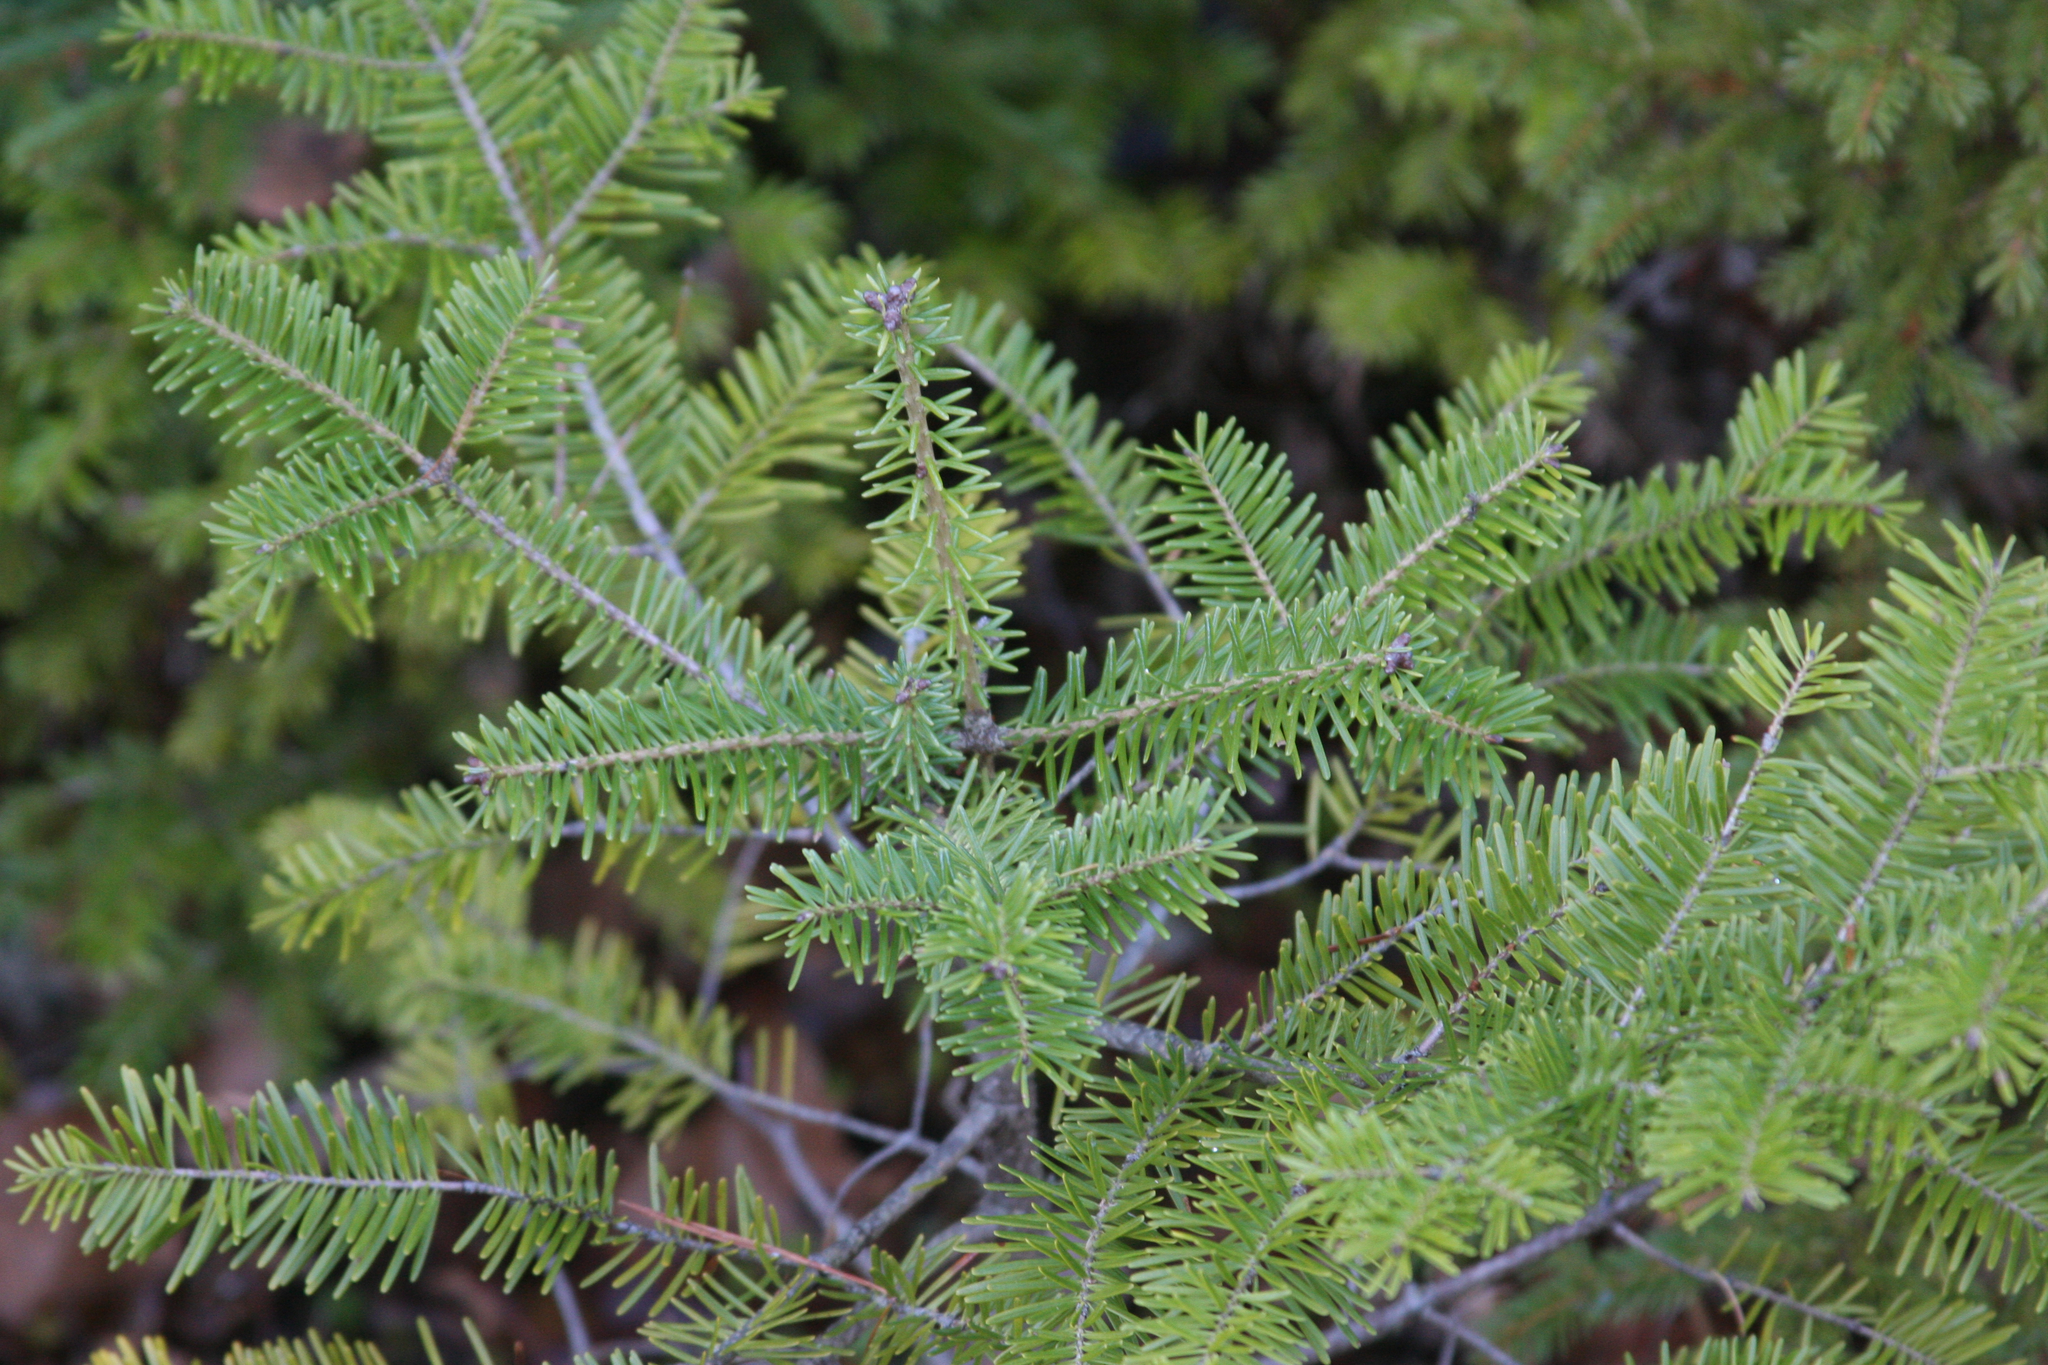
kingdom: Plantae
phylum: Tracheophyta
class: Pinopsida
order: Pinales
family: Pinaceae
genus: Abies
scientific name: Abies balsamea
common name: Balsam fir
